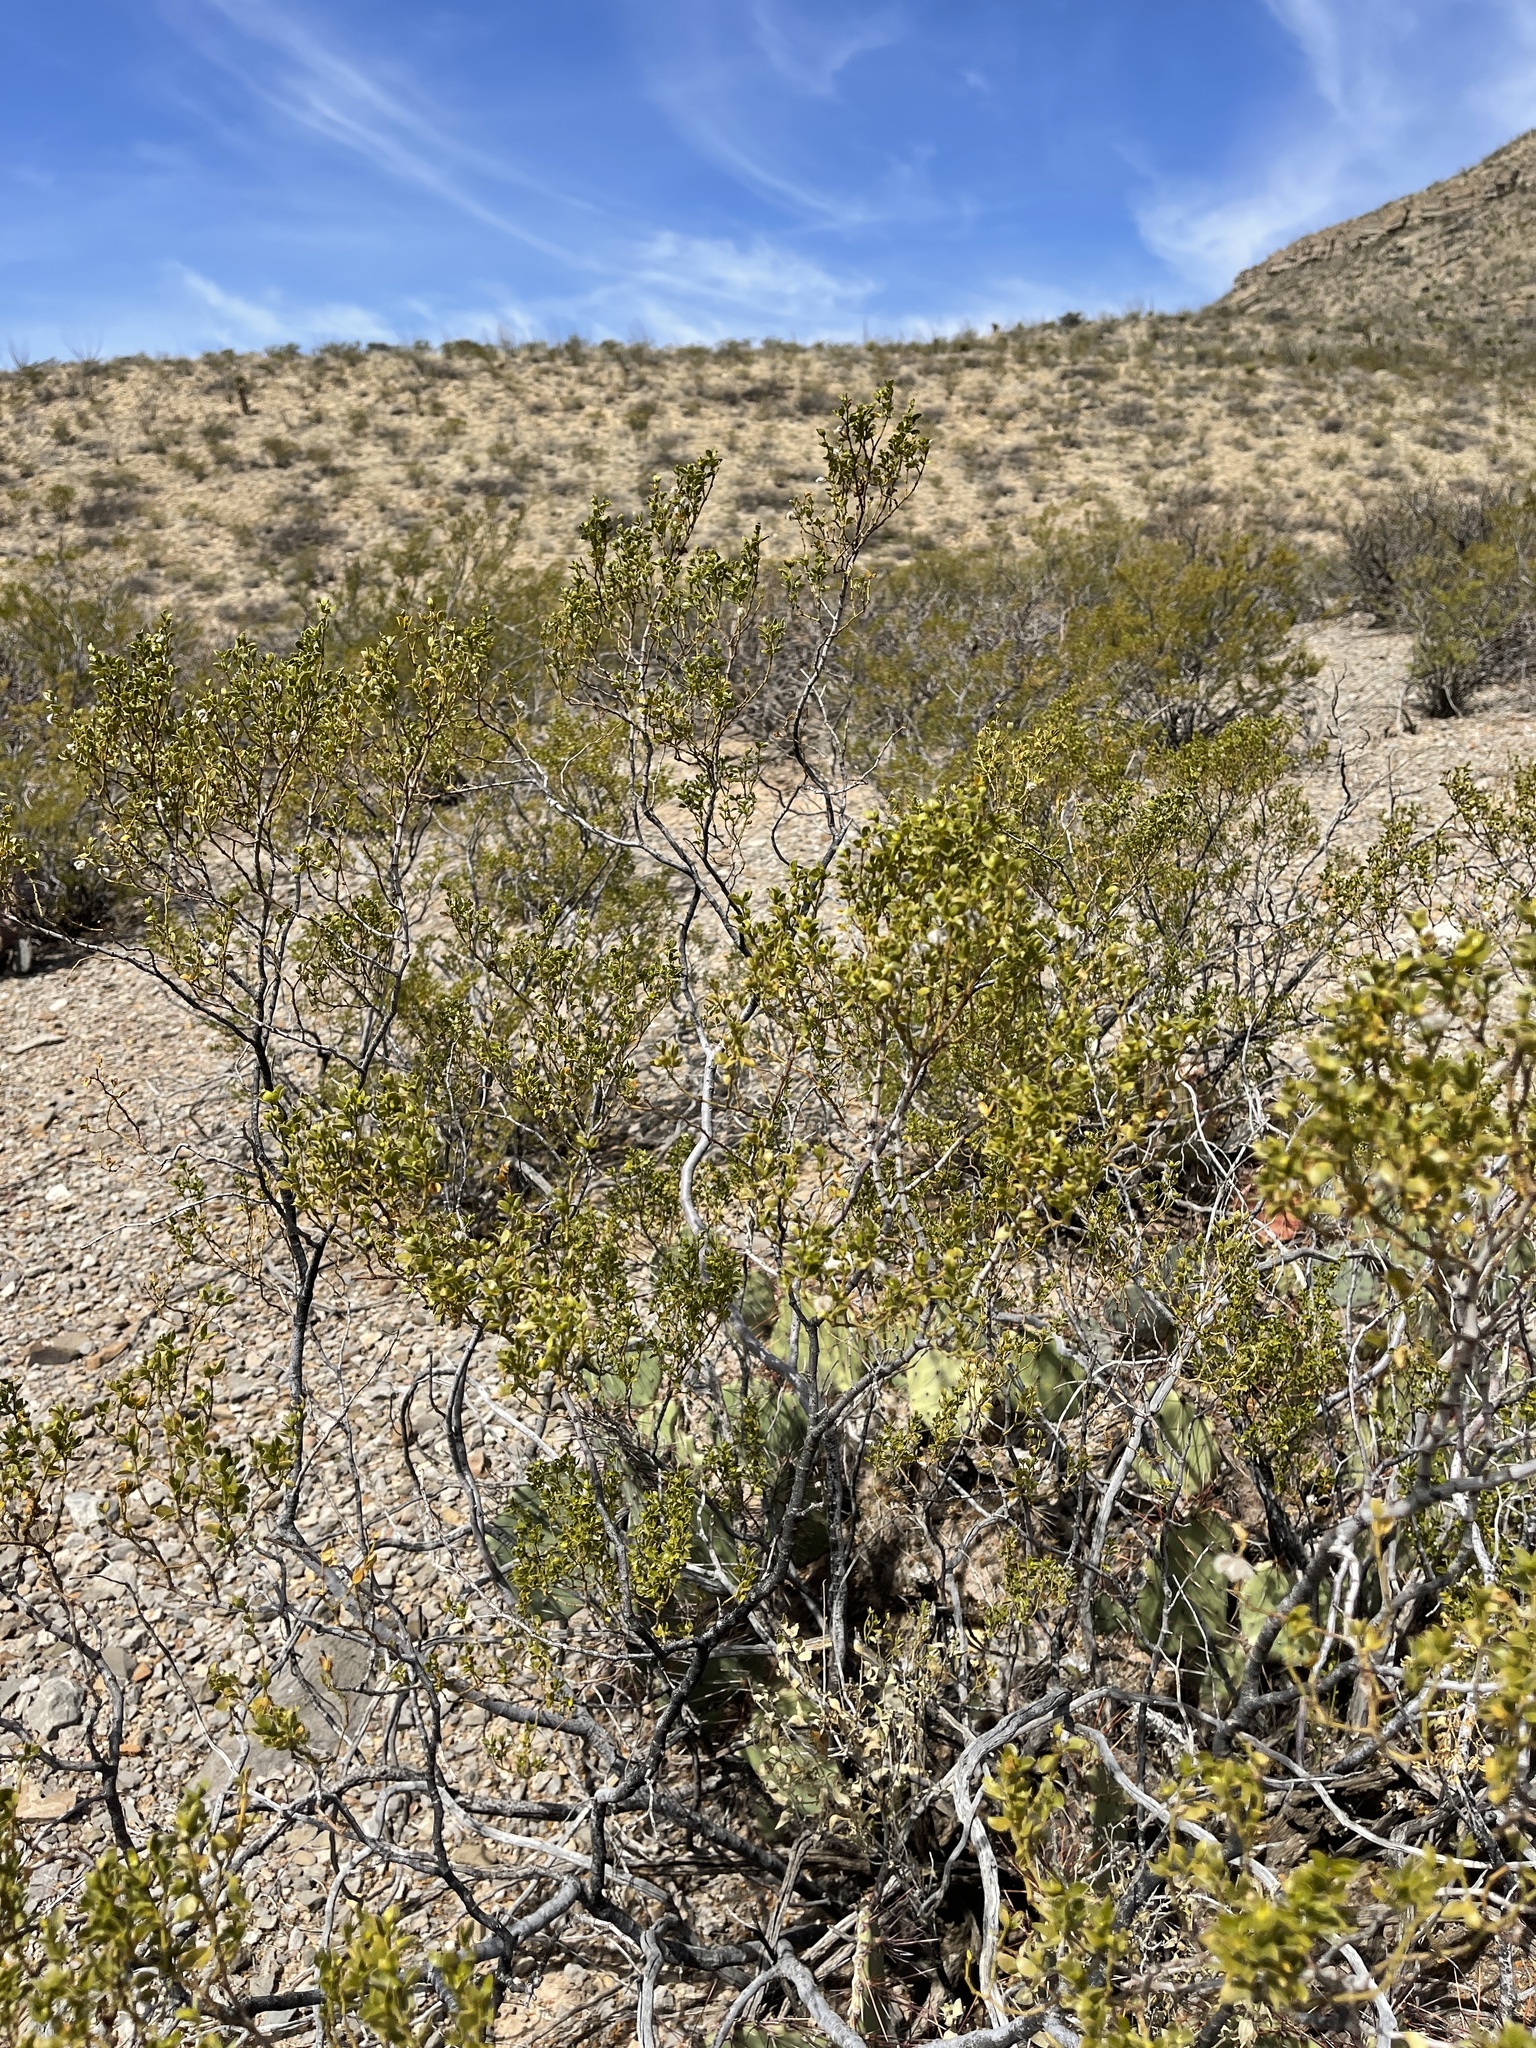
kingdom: Plantae
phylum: Tracheophyta
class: Magnoliopsida
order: Zygophyllales
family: Zygophyllaceae
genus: Larrea
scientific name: Larrea tridentata
